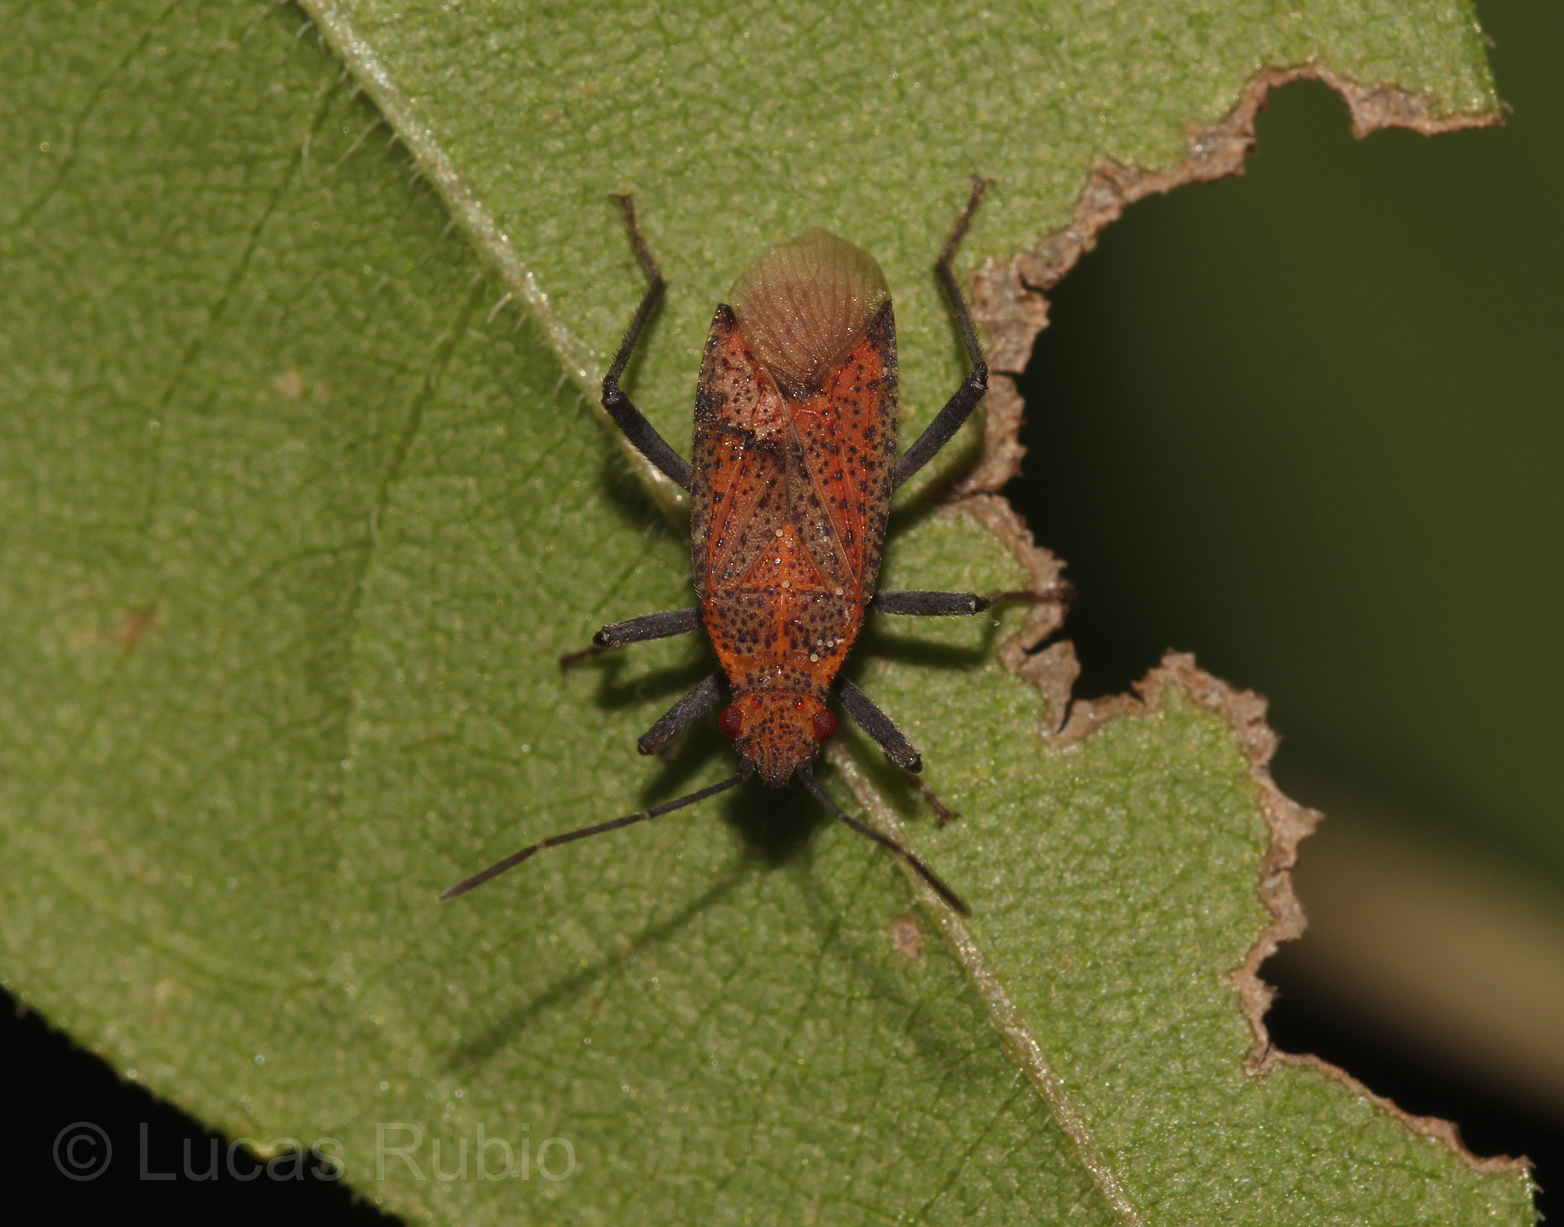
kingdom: Animalia
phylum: Arthropoda
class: Insecta
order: Hemiptera
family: Rhopalidae
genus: Jadera
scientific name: Jadera choprai
